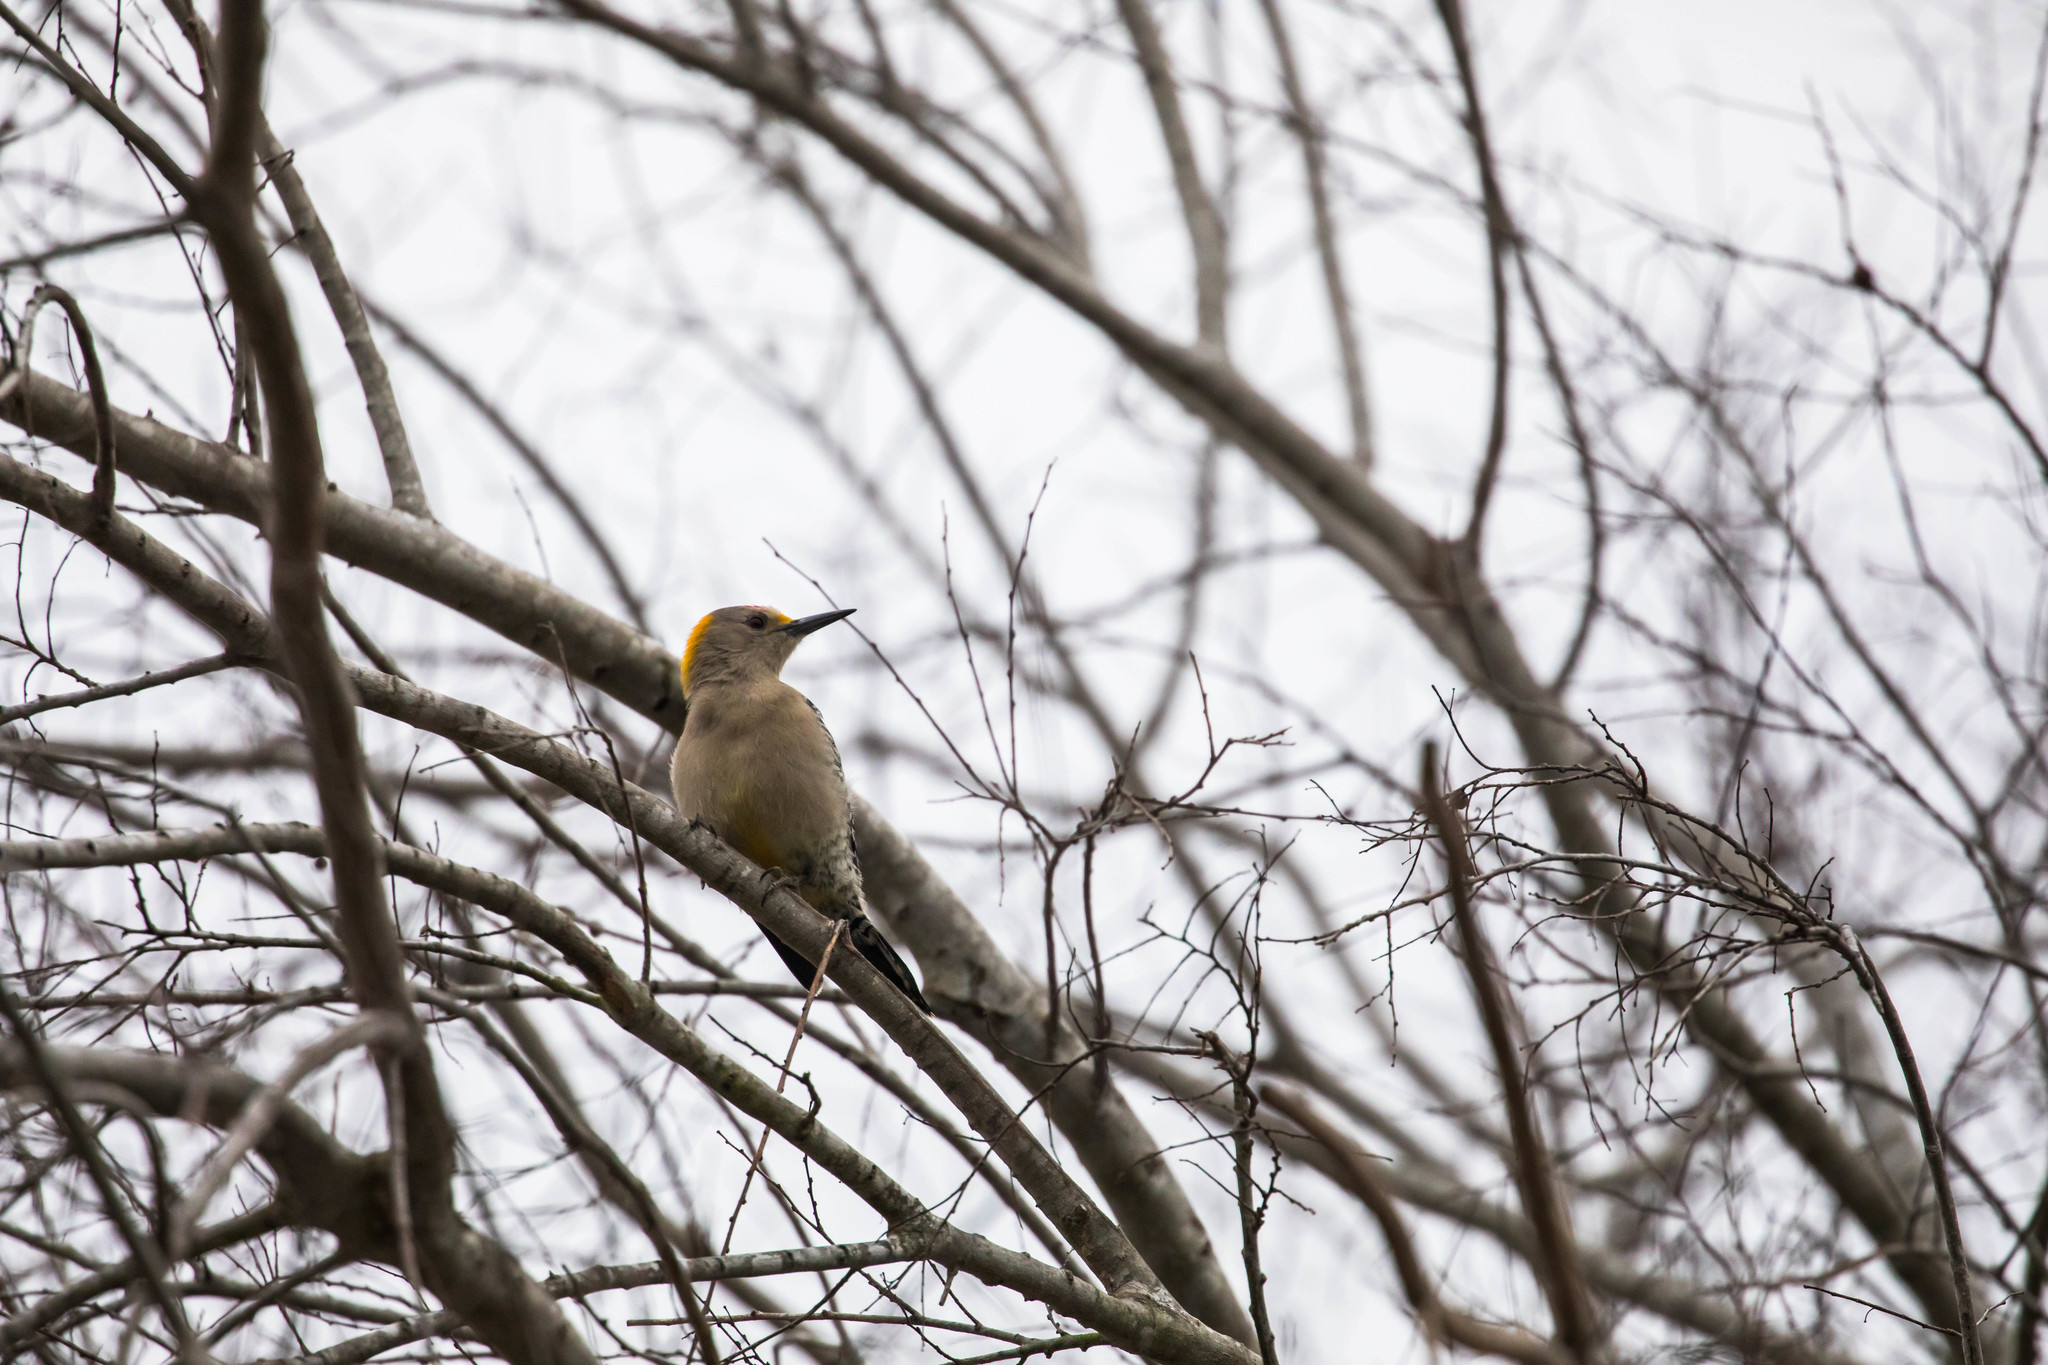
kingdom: Animalia
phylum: Chordata
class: Aves
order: Piciformes
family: Picidae
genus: Melanerpes
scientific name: Melanerpes aurifrons
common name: Golden-fronted woodpecker
